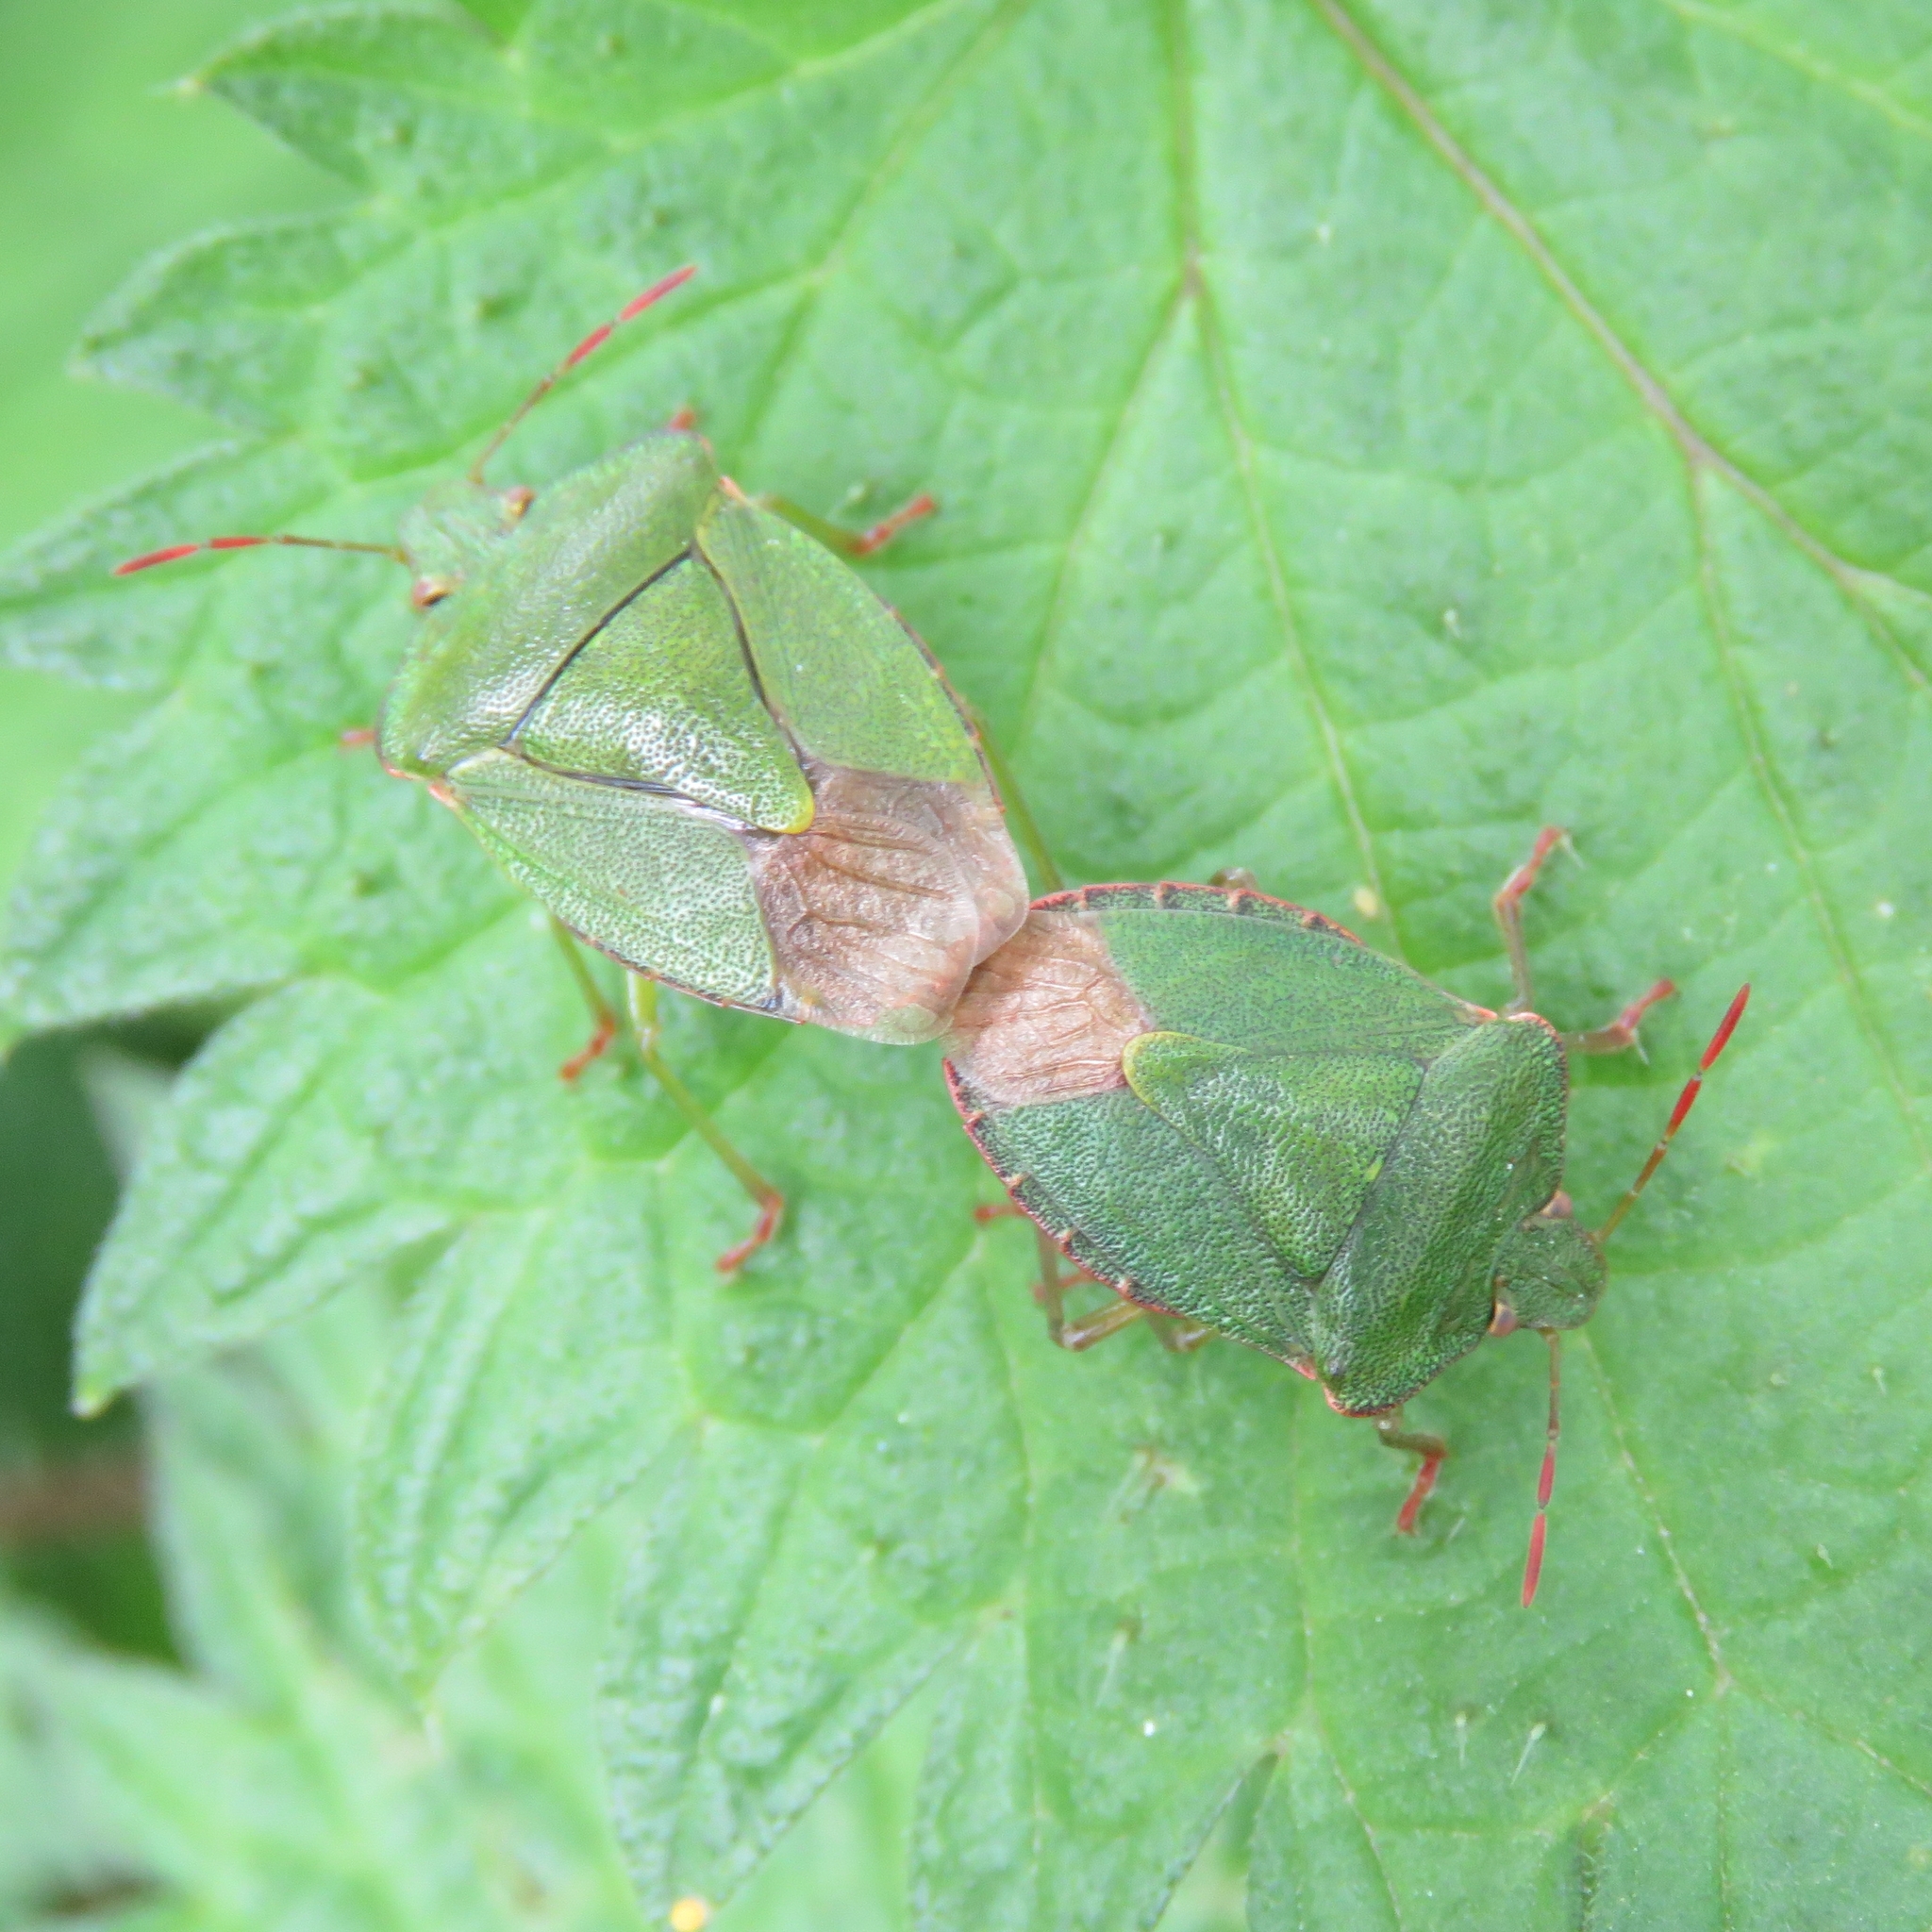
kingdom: Animalia
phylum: Arthropoda
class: Insecta
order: Hemiptera
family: Pentatomidae
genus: Palomena
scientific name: Palomena prasina
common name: Green shieldbug
